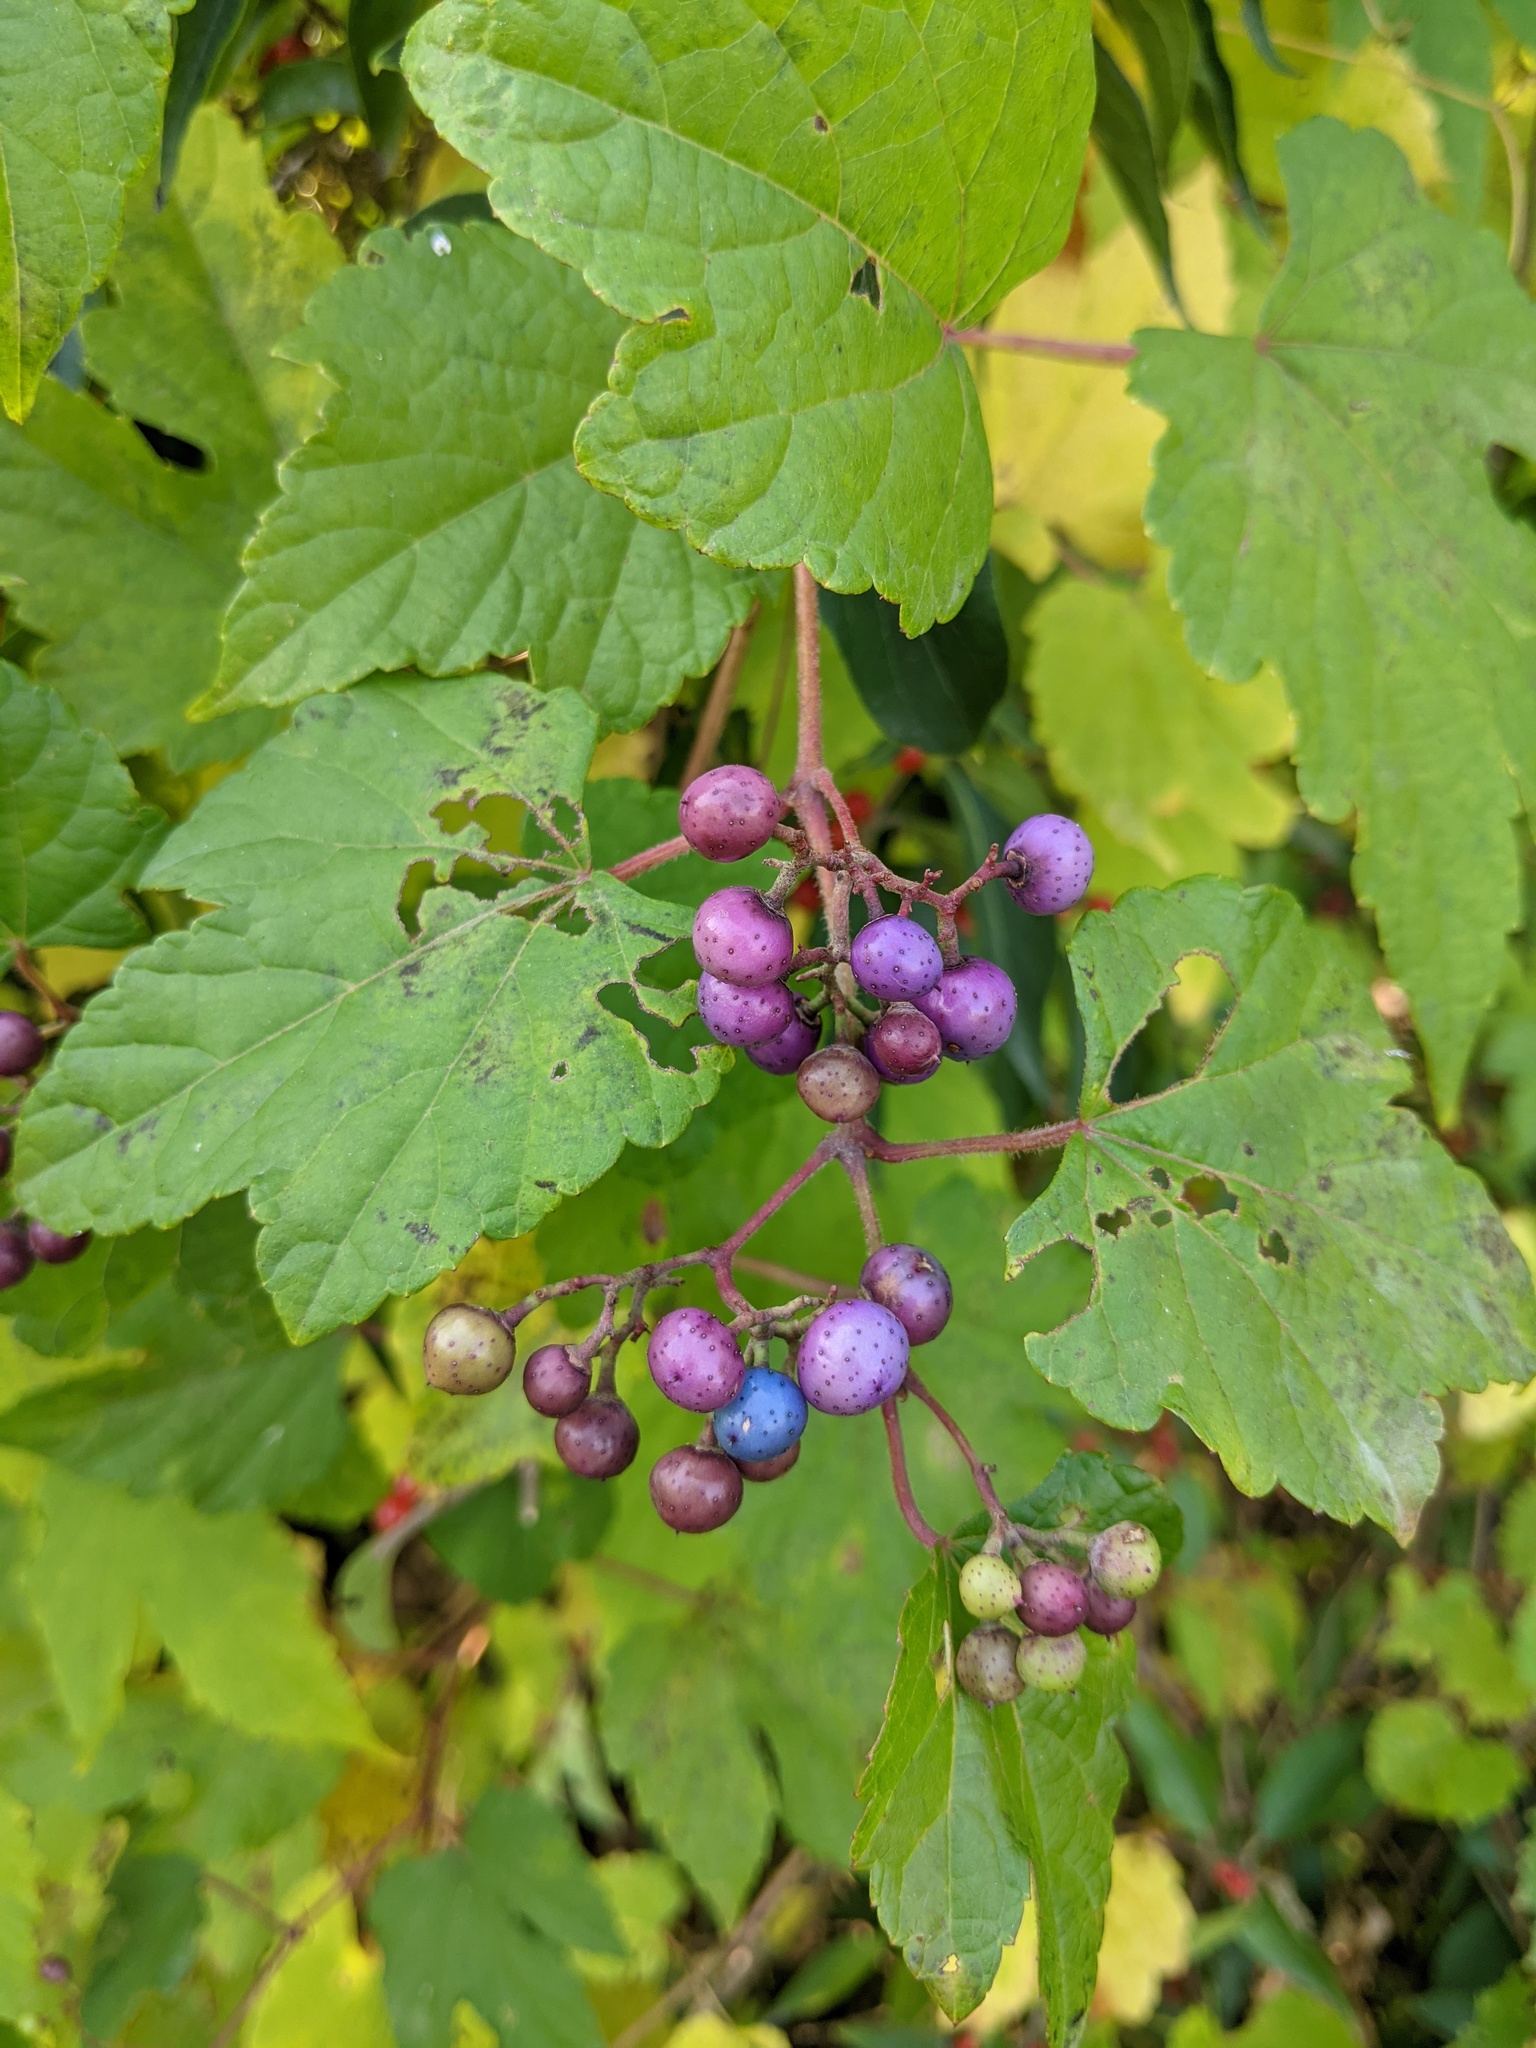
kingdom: Plantae
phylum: Tracheophyta
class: Magnoliopsida
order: Vitales
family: Vitaceae
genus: Ampelopsis
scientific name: Ampelopsis glandulosa
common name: Amur peppervine
